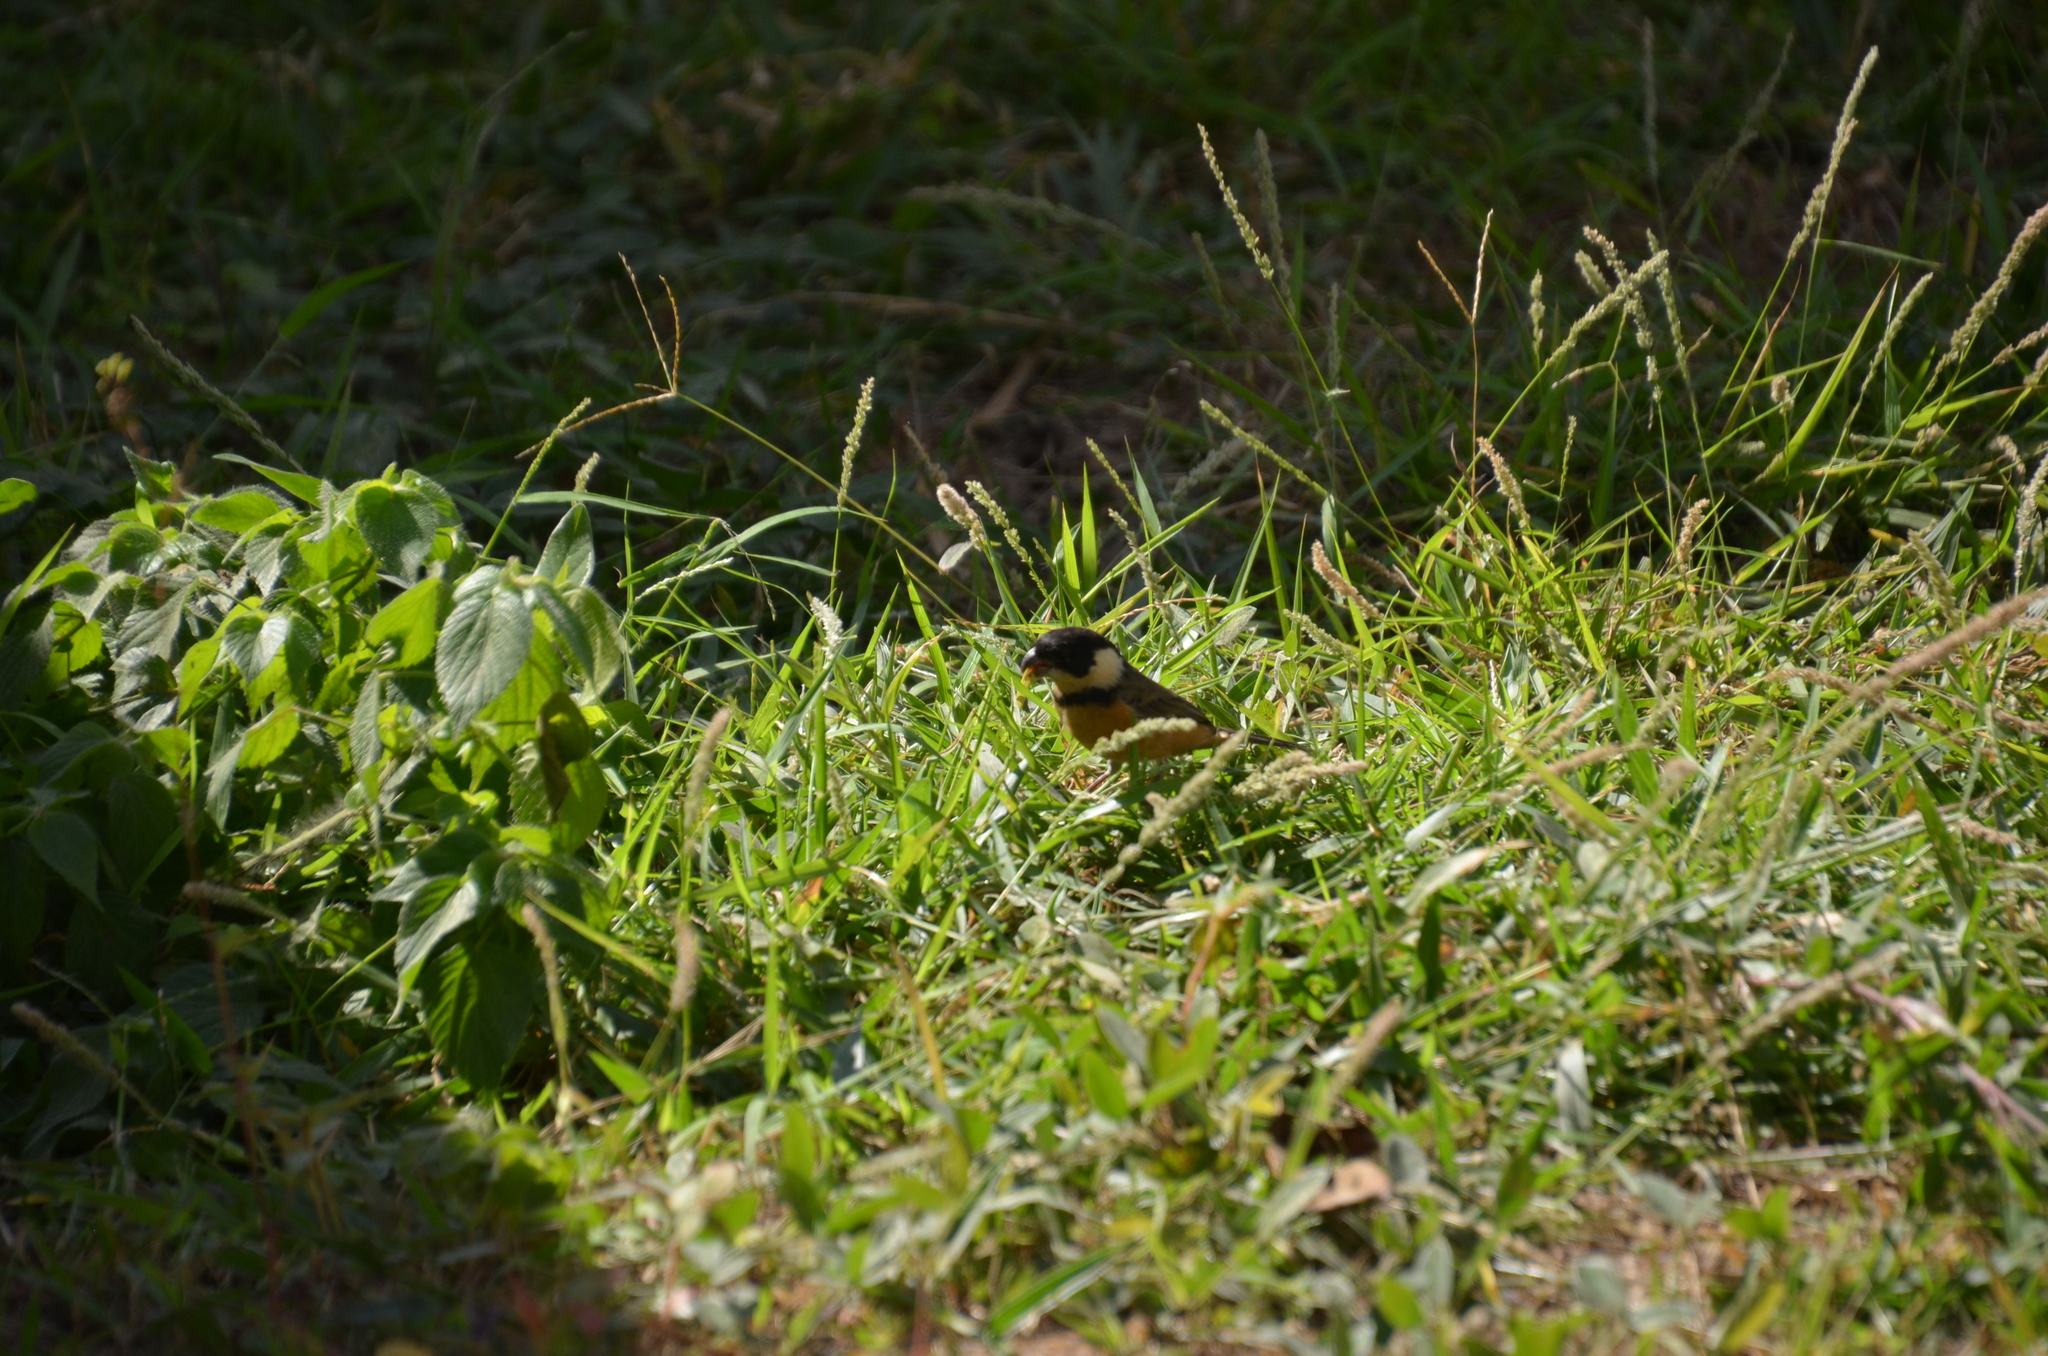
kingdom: Animalia
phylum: Chordata
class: Aves
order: Passeriformes
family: Thraupidae
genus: Sporophila
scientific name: Sporophila torqueola
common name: White-collared seedeater
